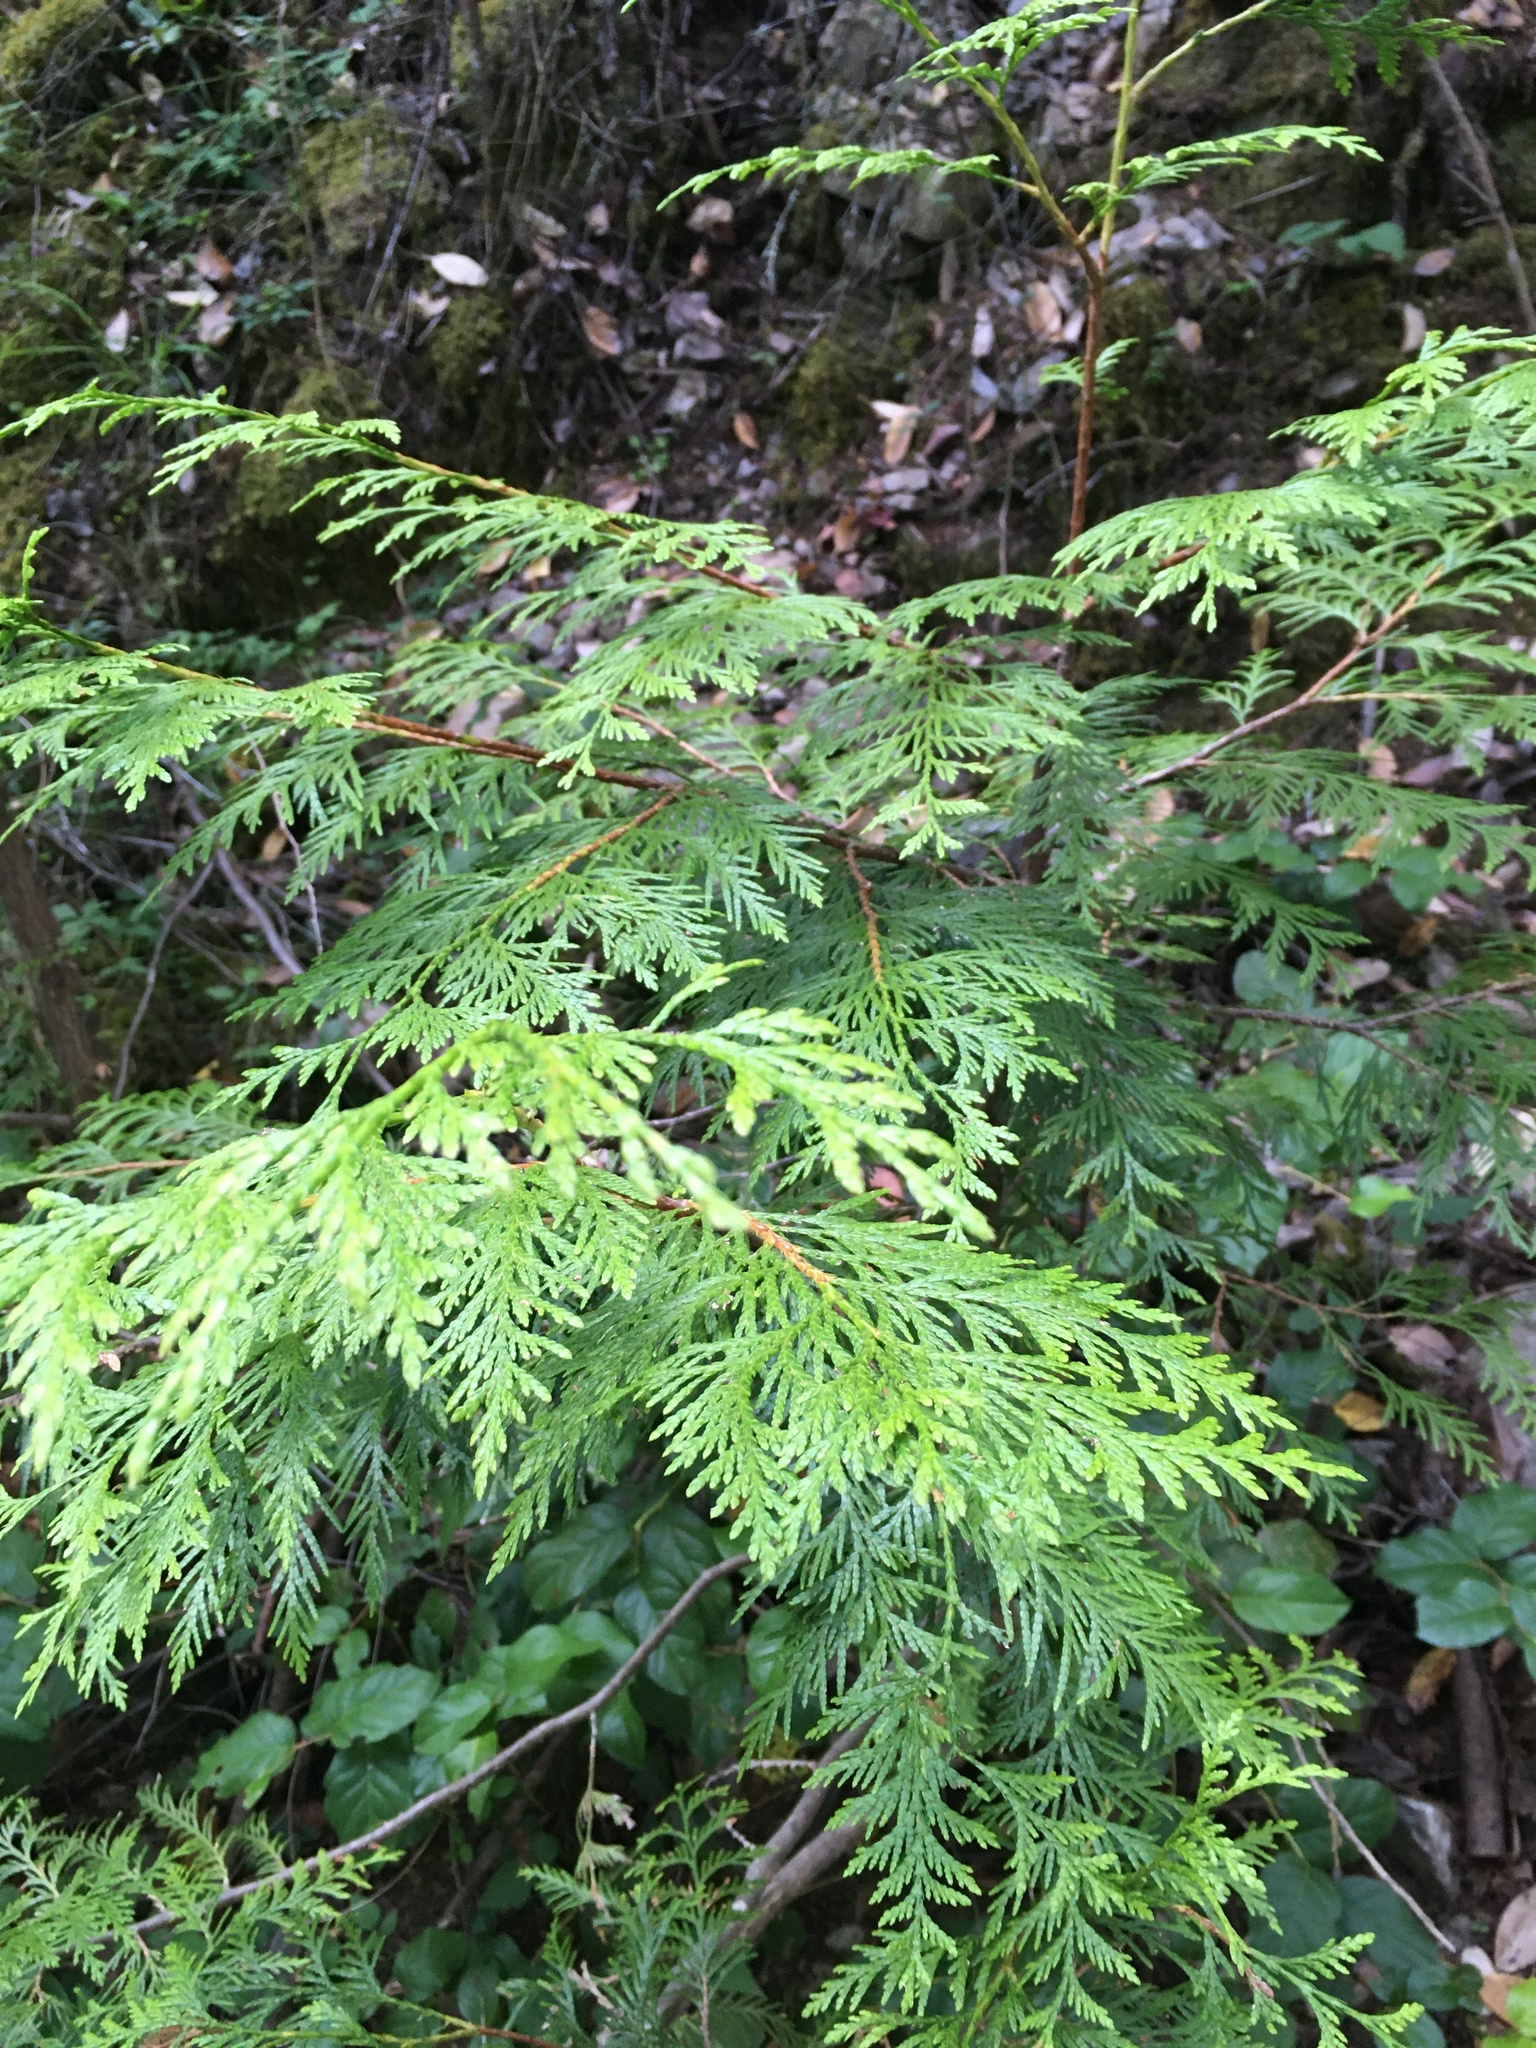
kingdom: Plantae
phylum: Tracheophyta
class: Pinopsida
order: Pinales
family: Cupressaceae
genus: Thuja
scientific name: Thuja plicata
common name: Western red-cedar
